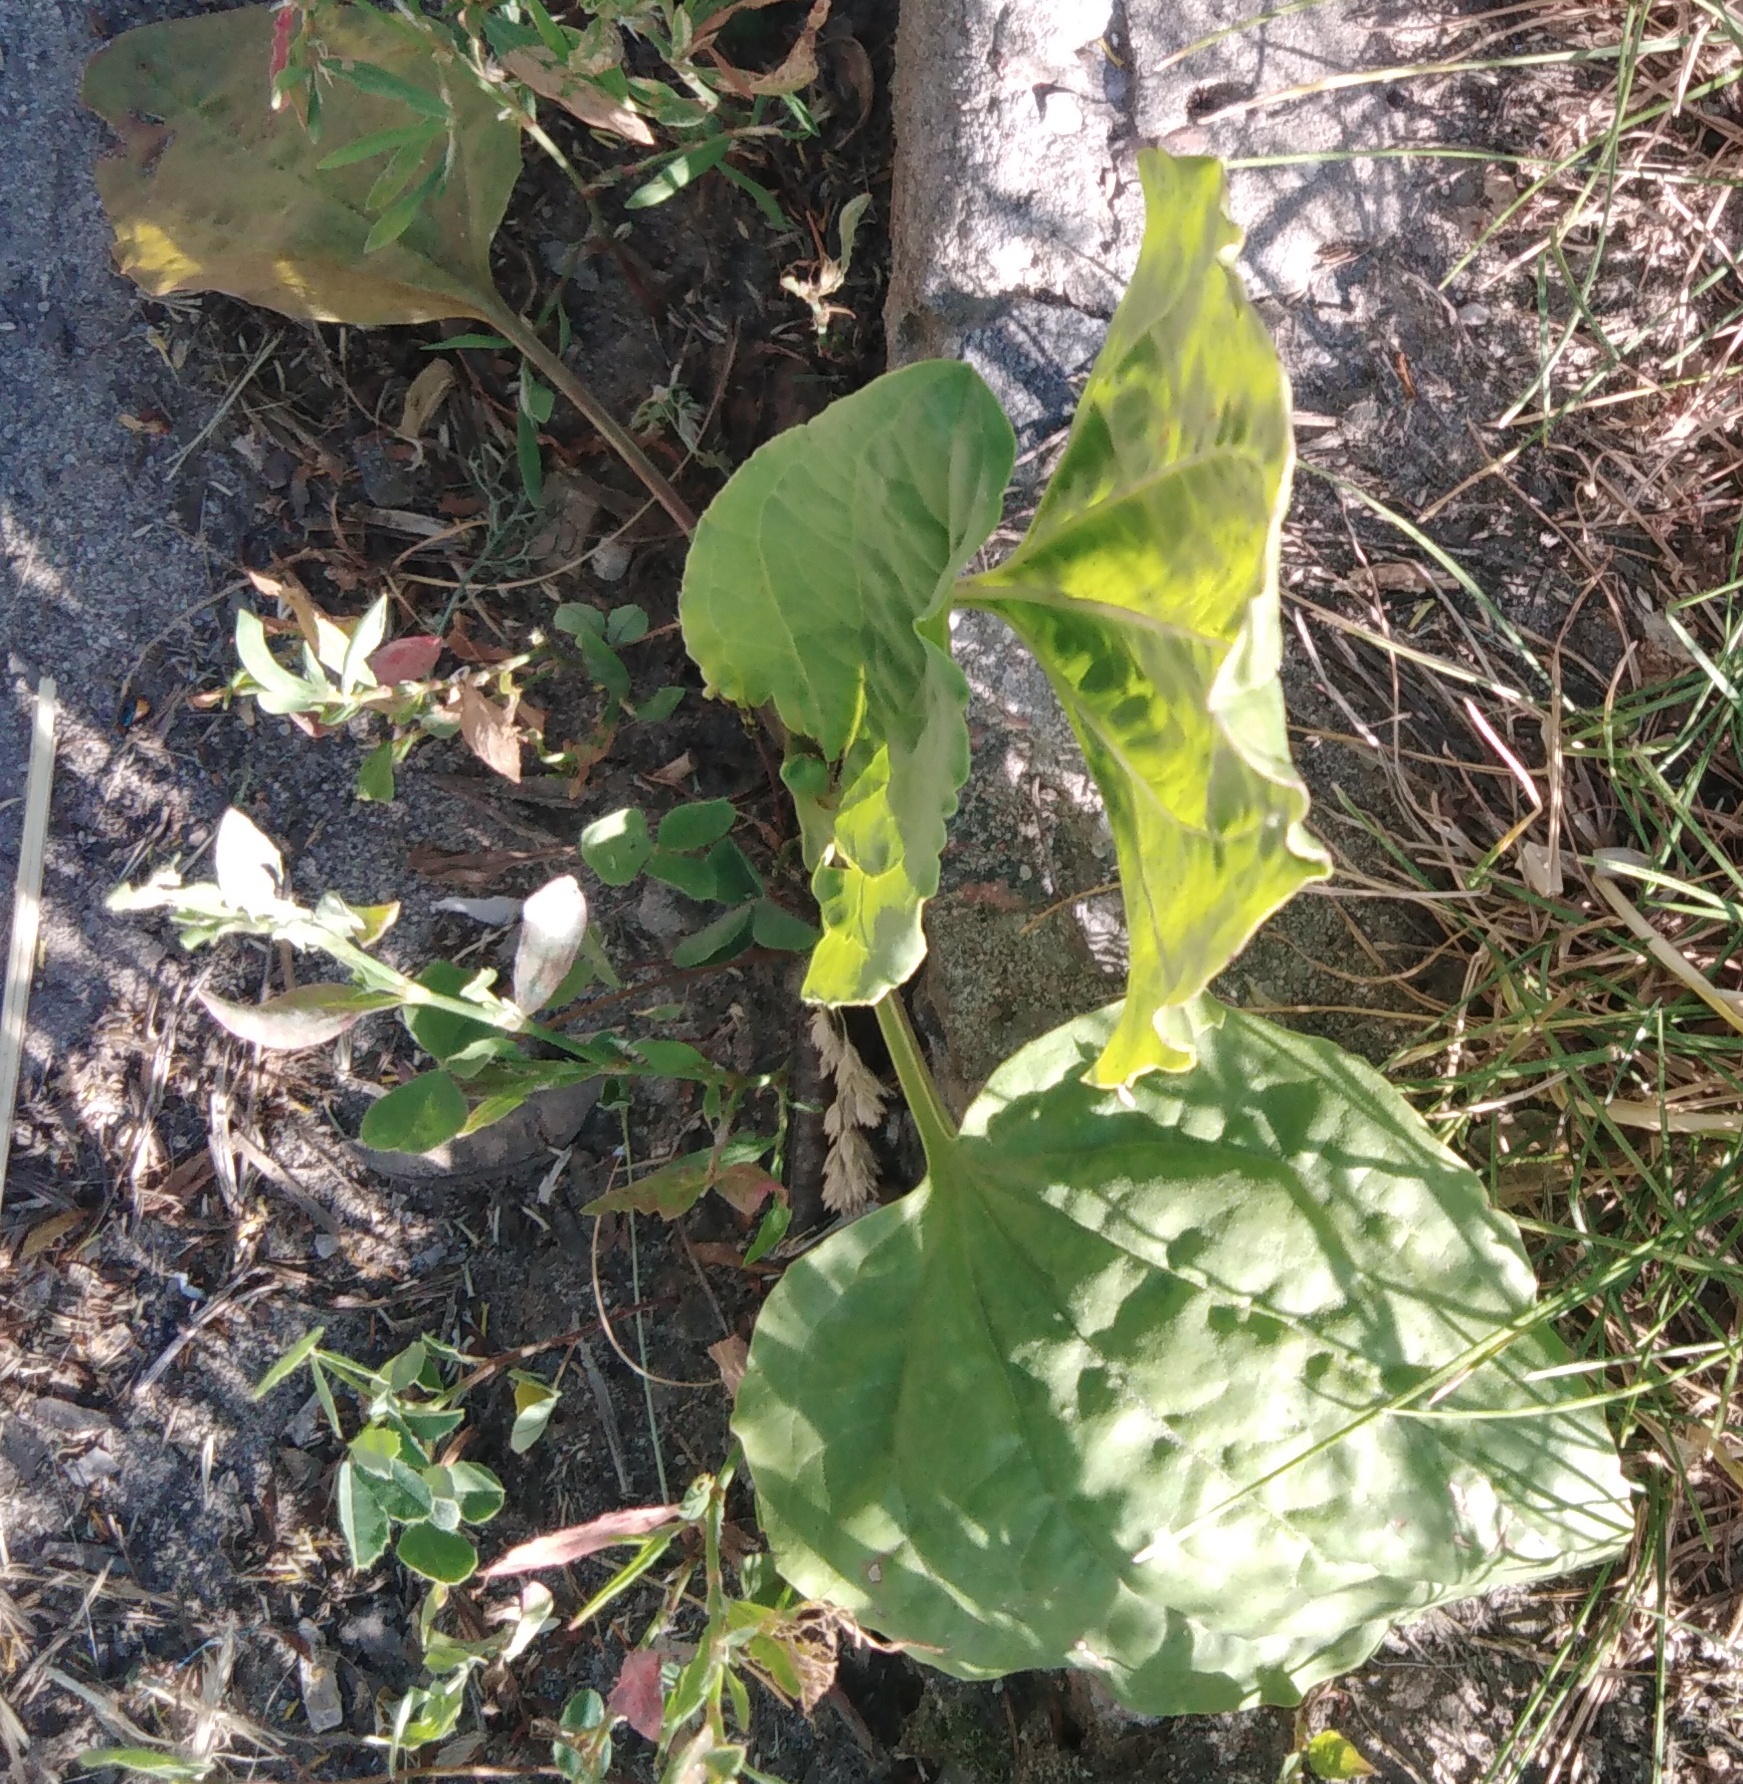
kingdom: Plantae
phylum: Tracheophyta
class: Magnoliopsida
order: Lamiales
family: Plantaginaceae
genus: Plantago
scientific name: Plantago major
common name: Common plantain
